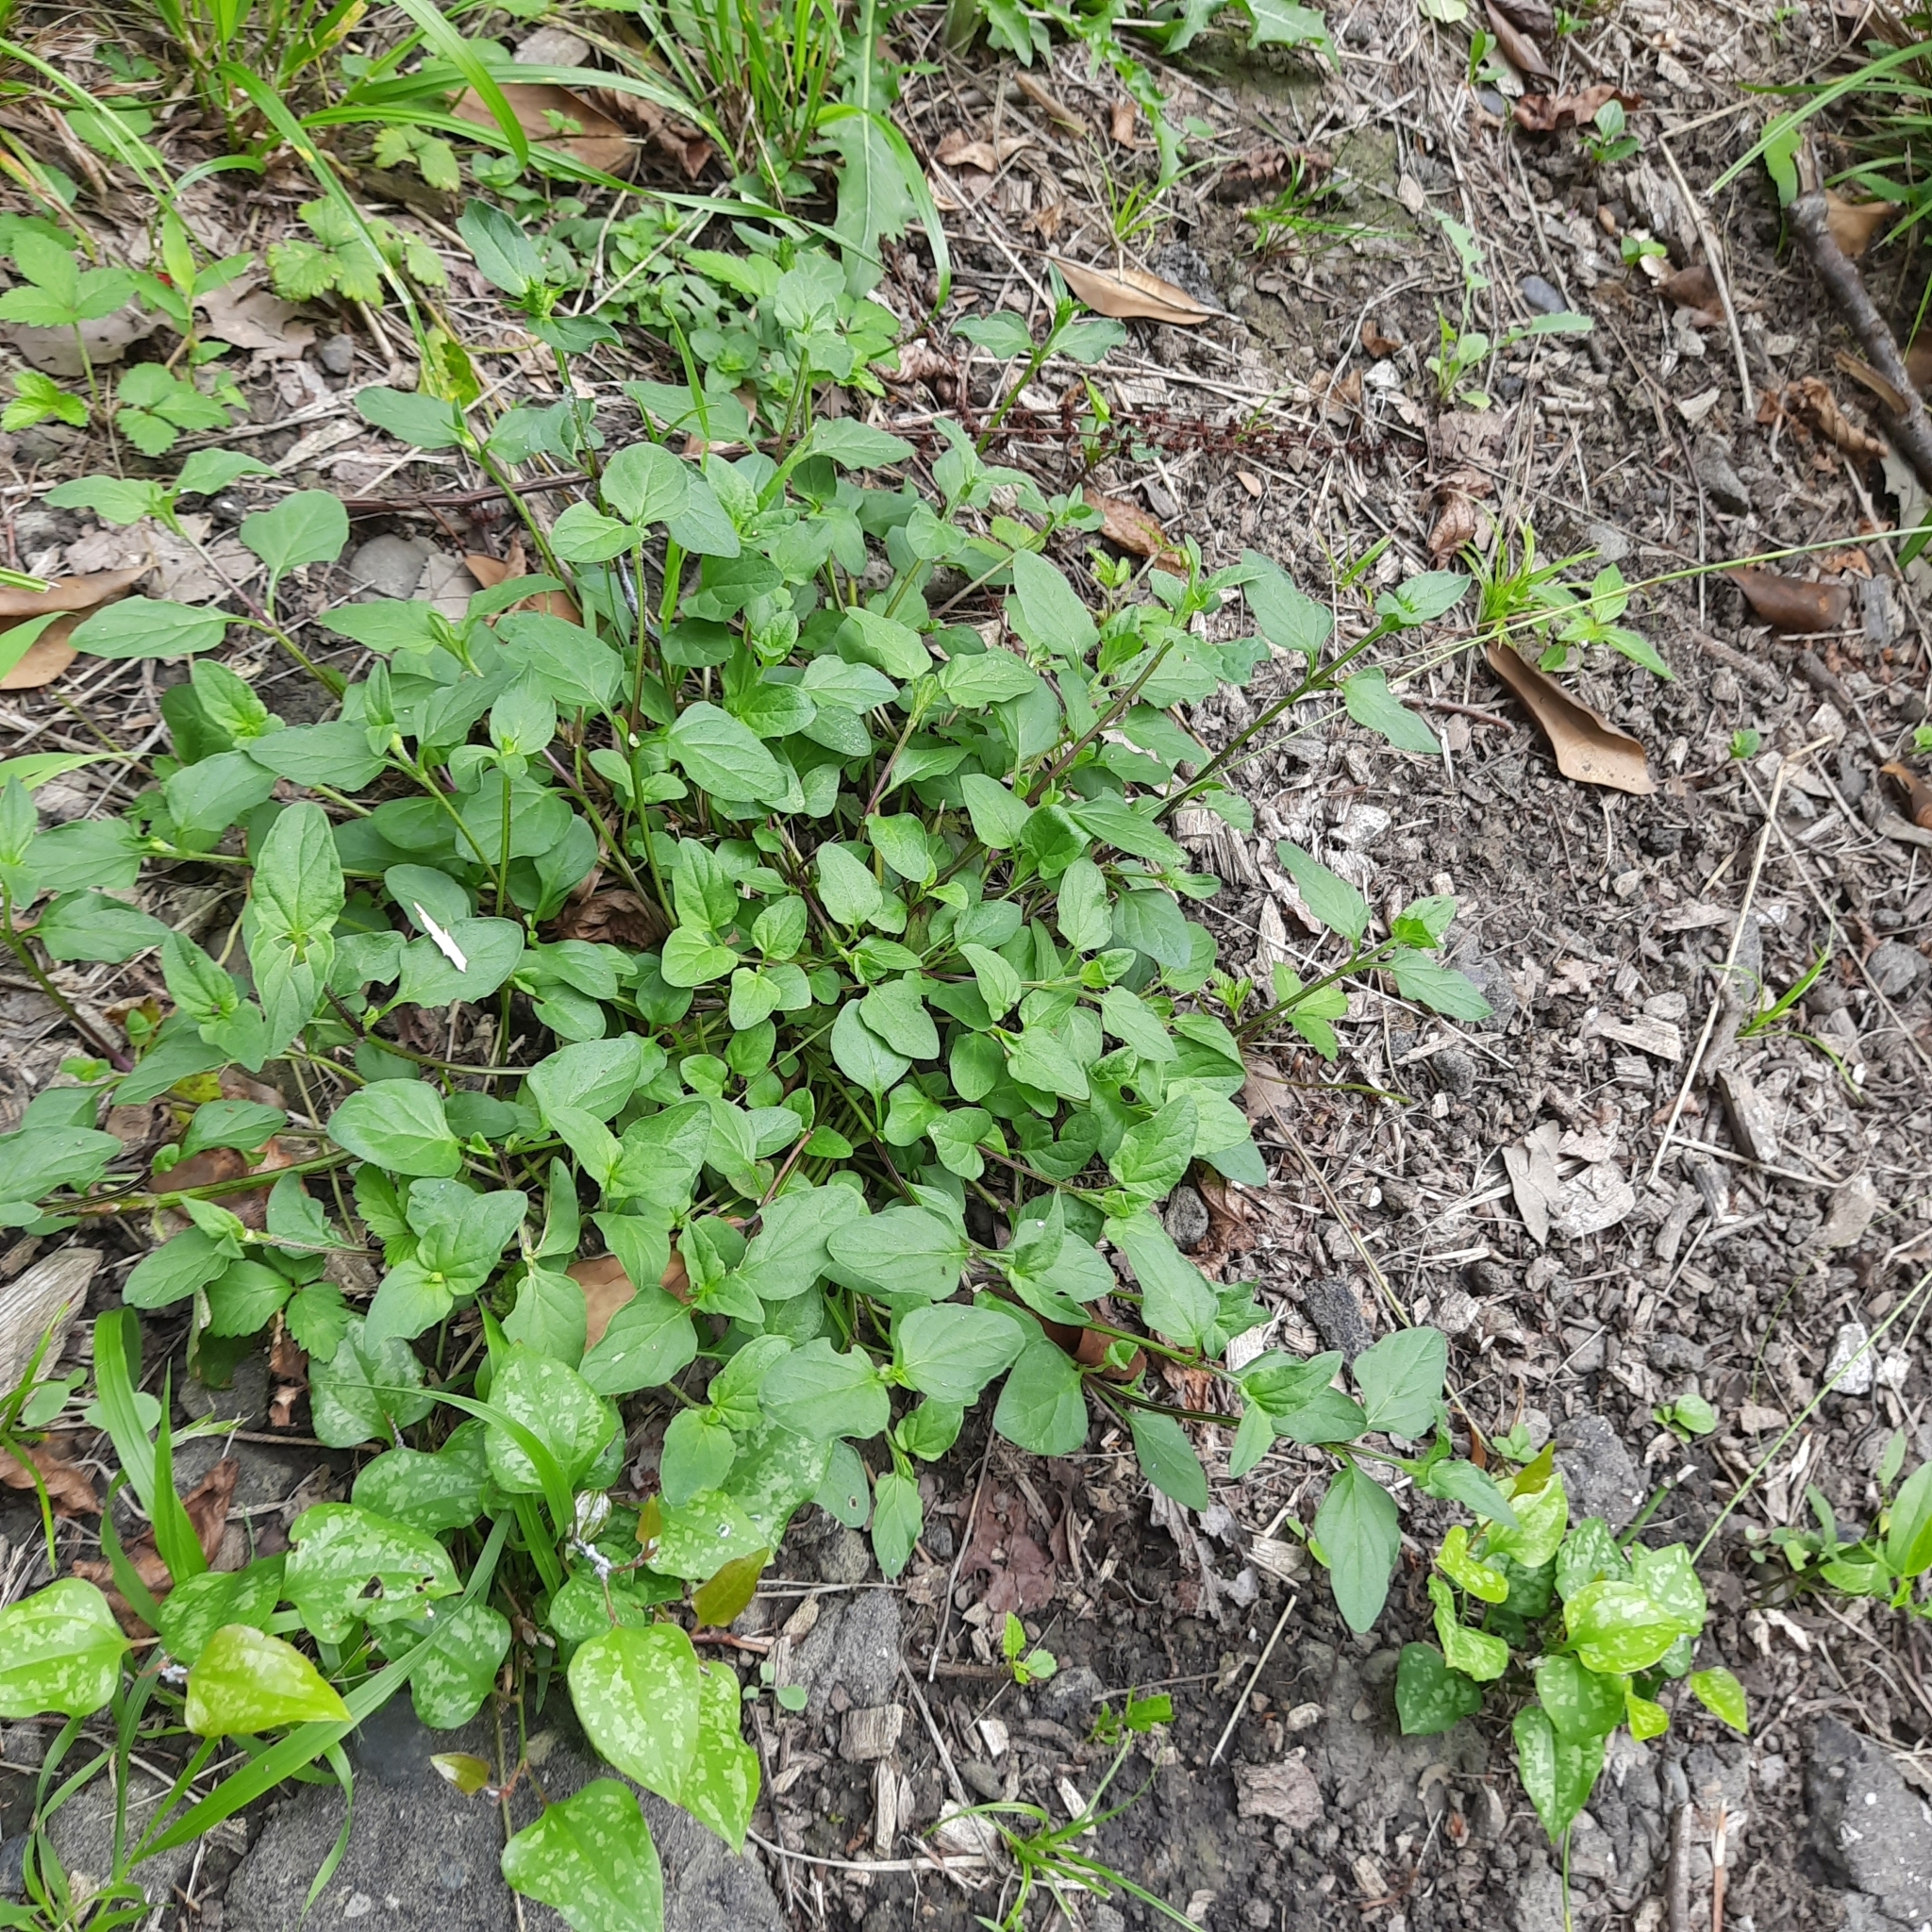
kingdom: Plantae
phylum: Tracheophyta
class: Magnoliopsida
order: Lamiales
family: Lamiaceae
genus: Prunella
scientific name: Prunella vulgaris
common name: Heal-all
